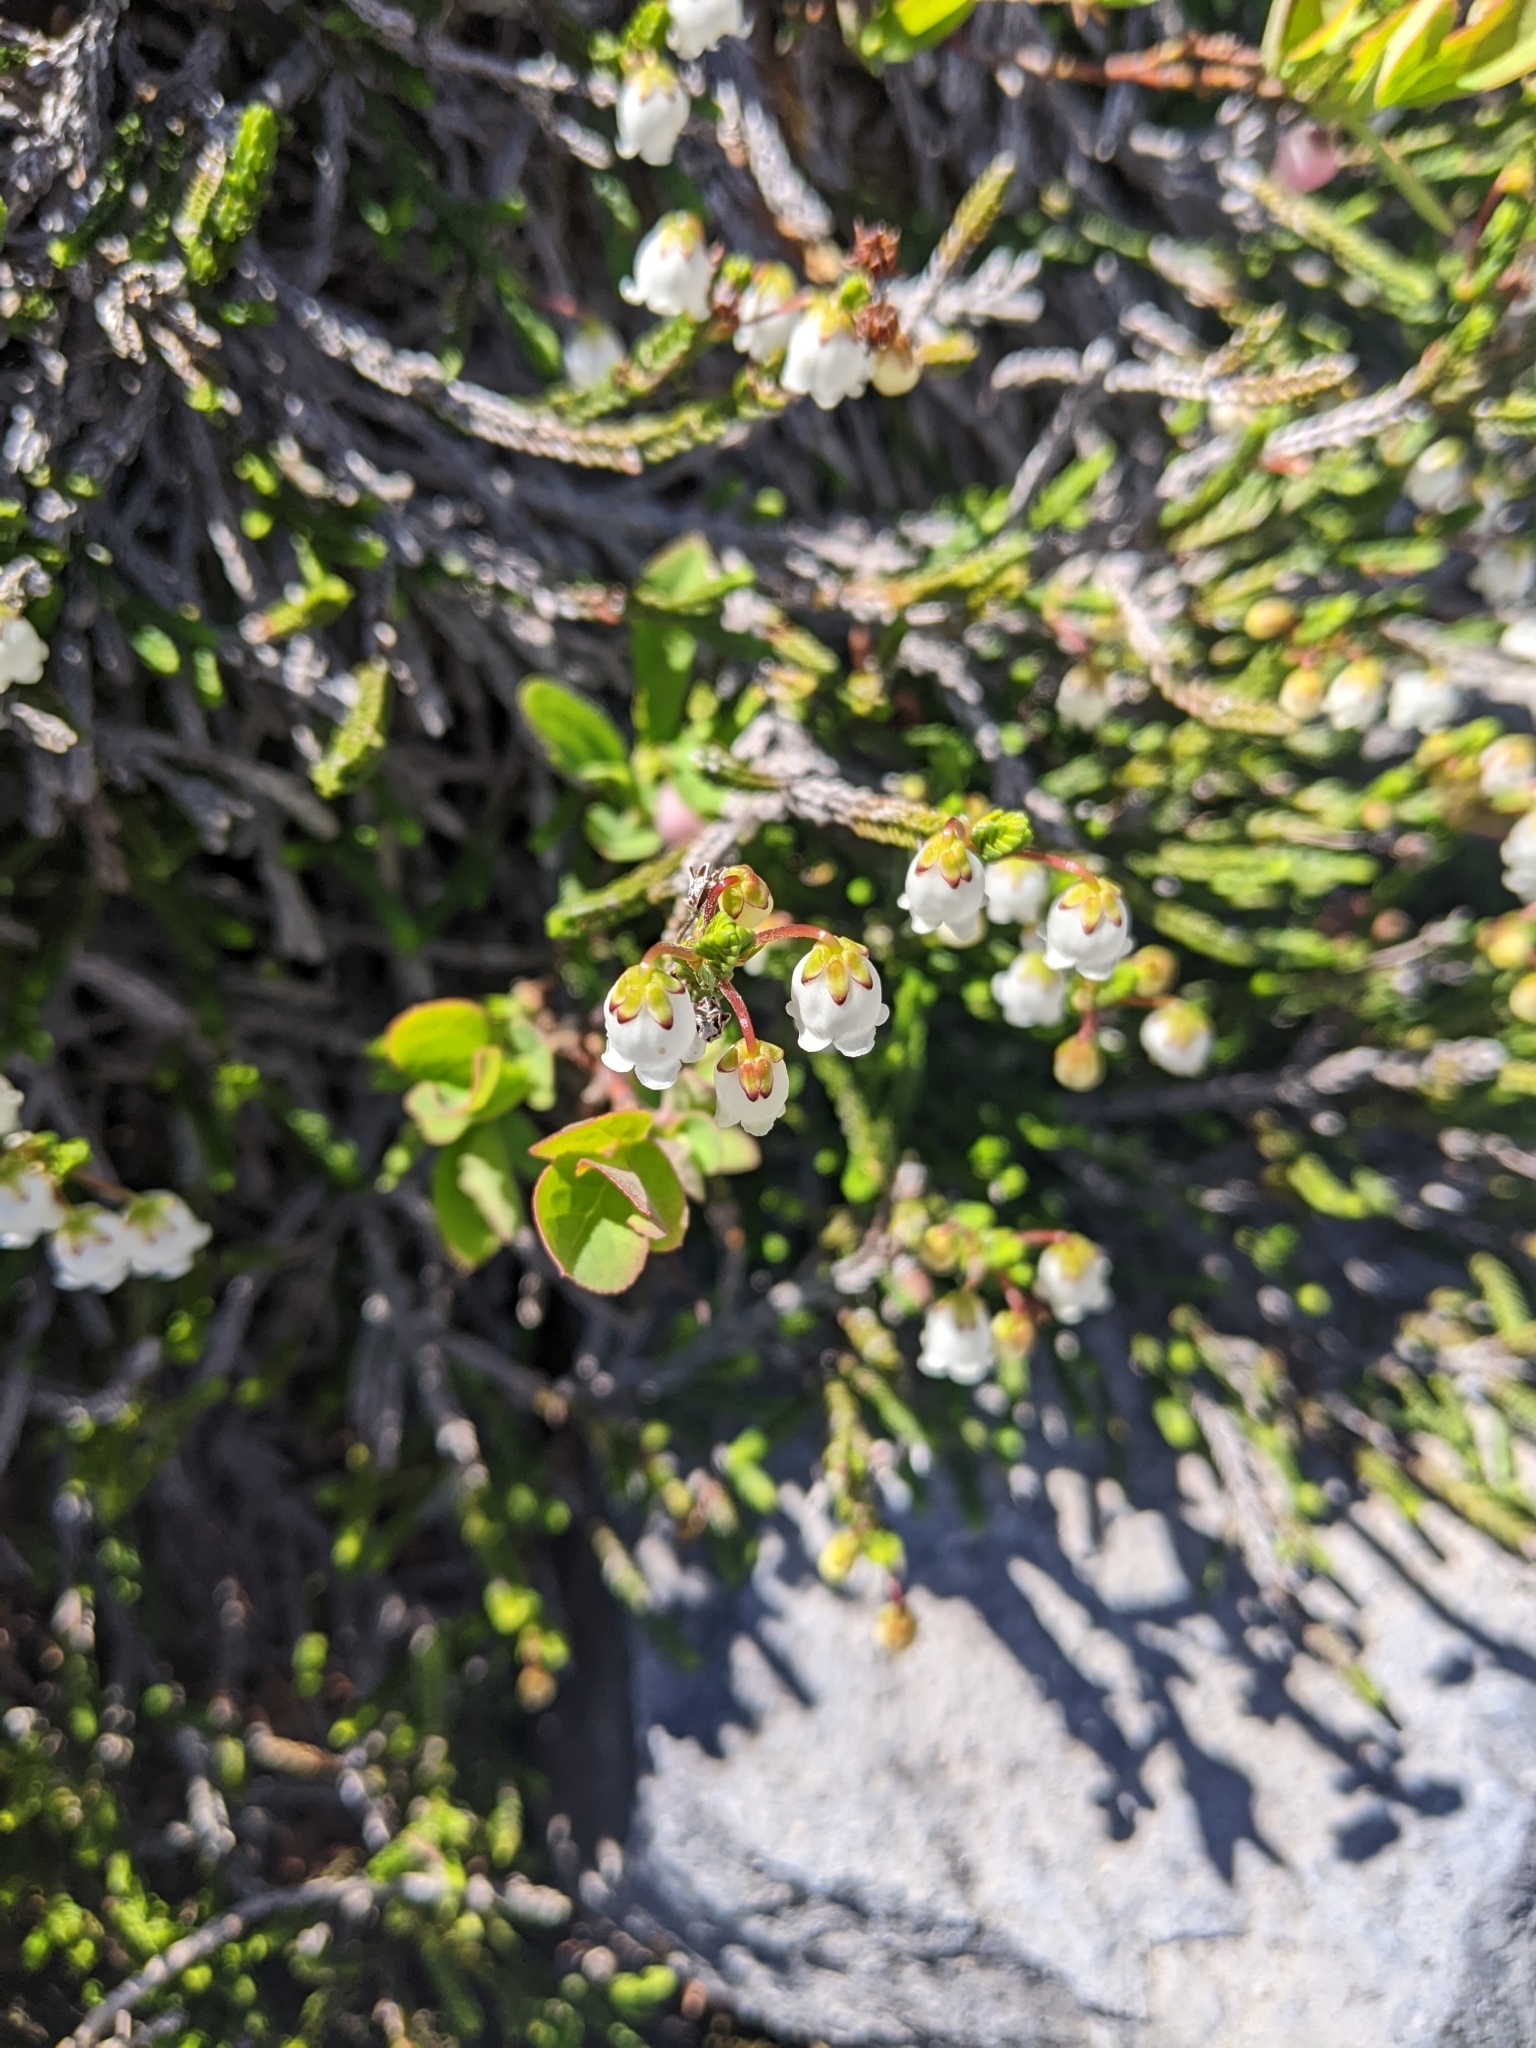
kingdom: Plantae
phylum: Tracheophyta
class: Magnoliopsida
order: Ericales
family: Ericaceae
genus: Cassiope
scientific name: Cassiope mertensiana
